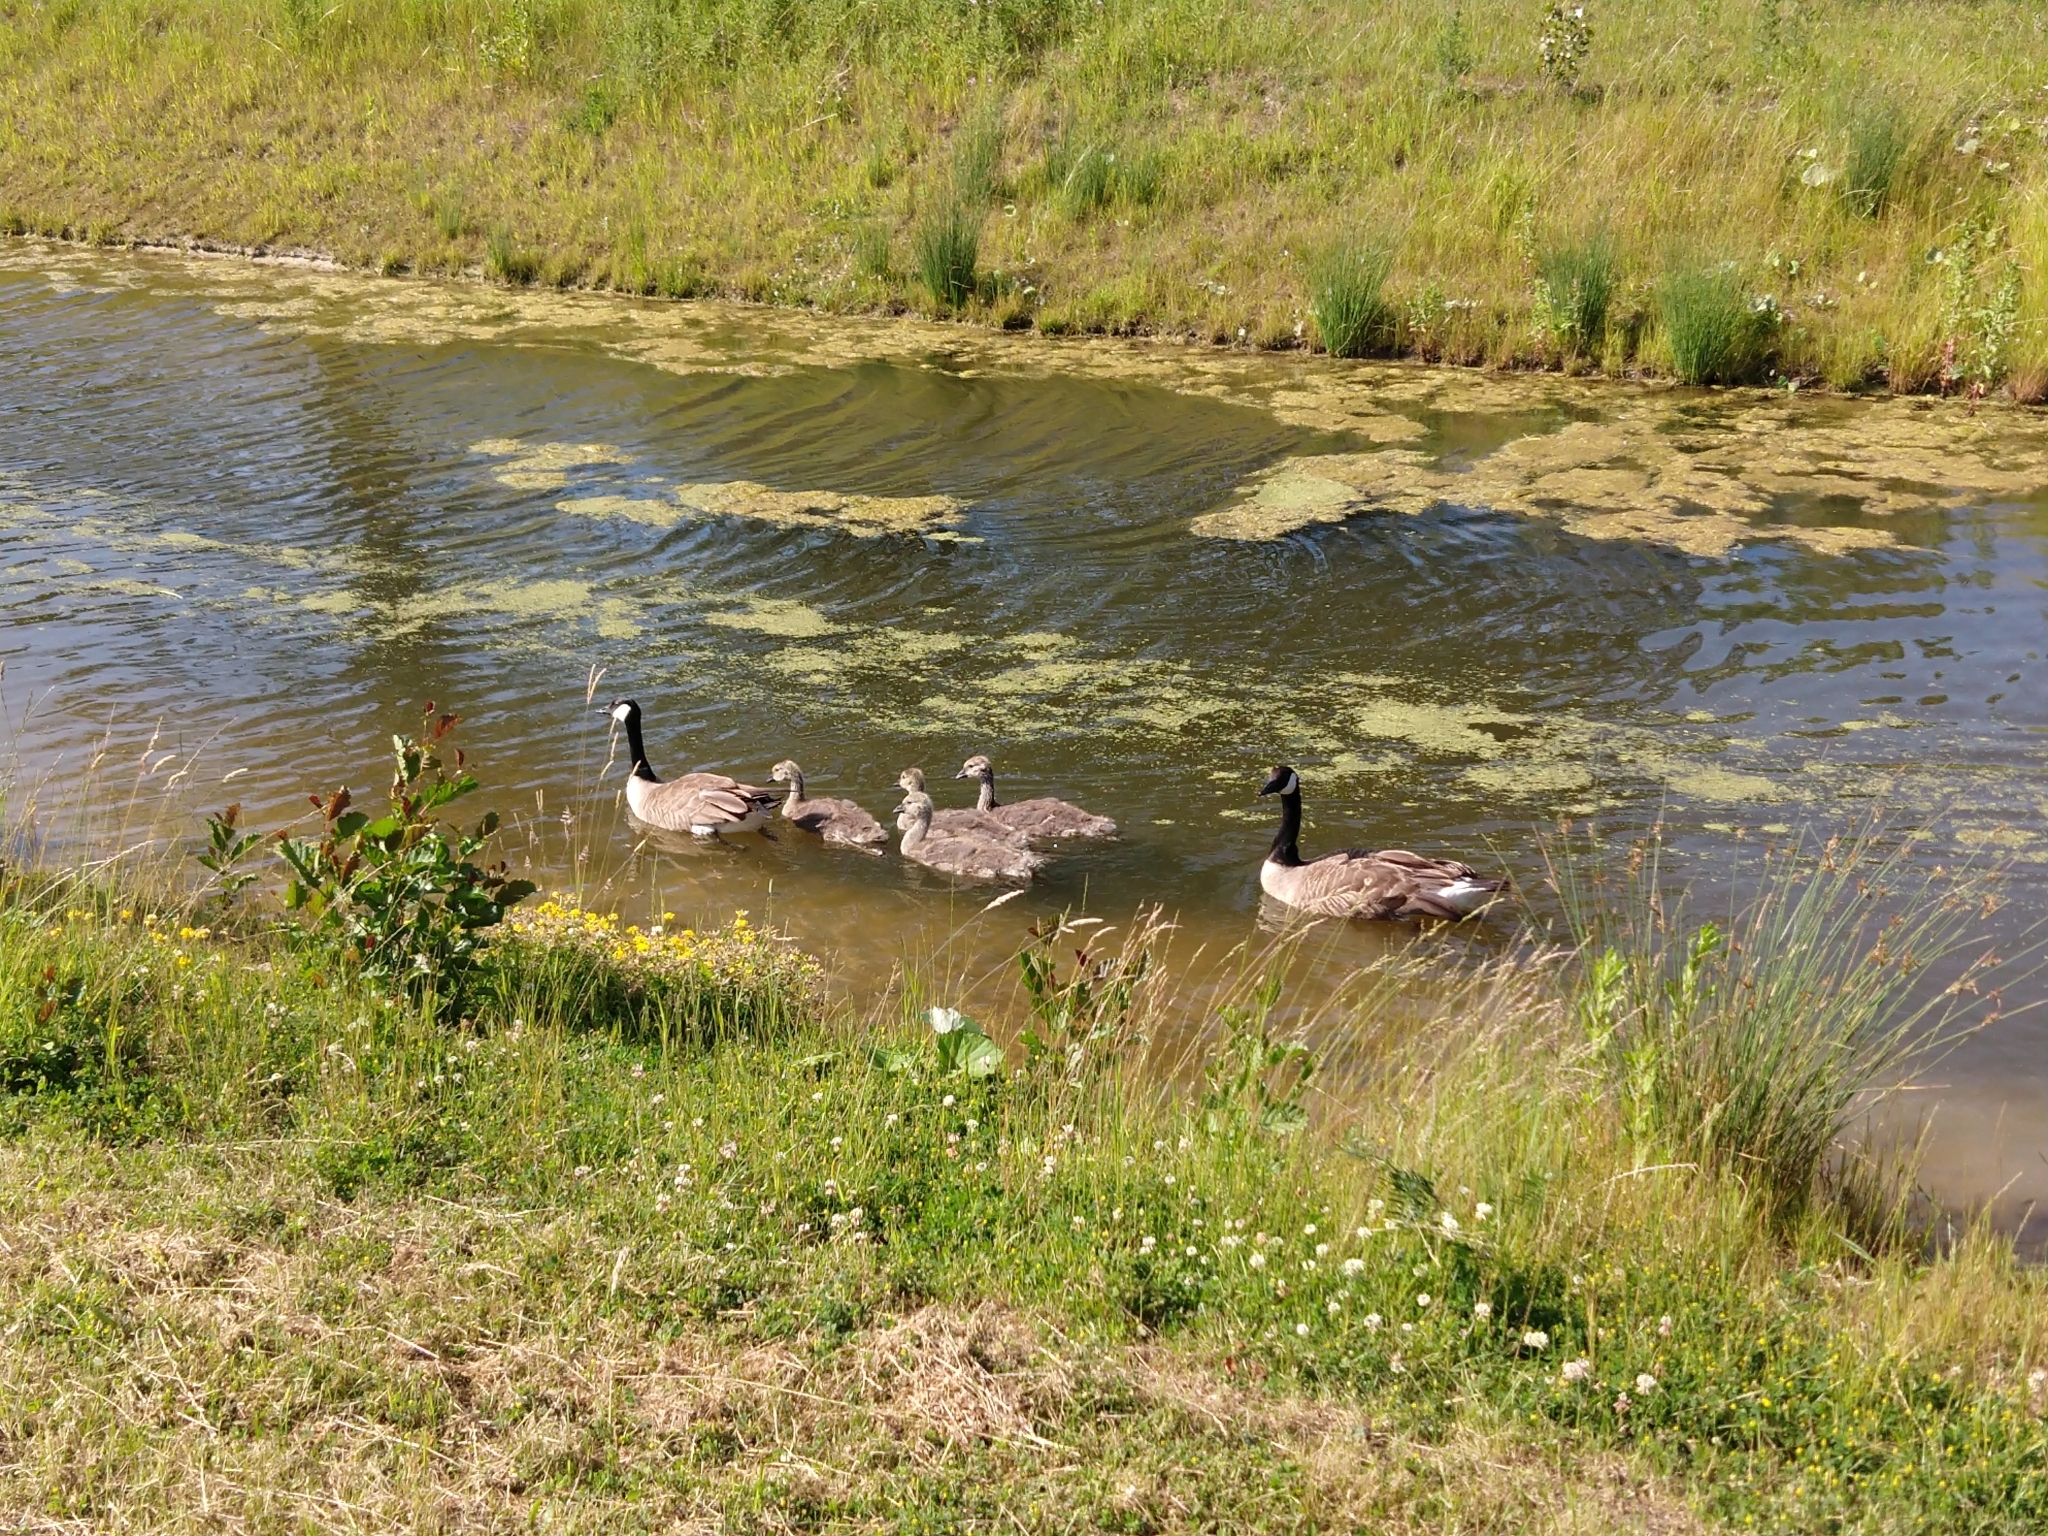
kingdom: Animalia
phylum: Chordata
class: Aves
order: Anseriformes
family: Anatidae
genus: Branta
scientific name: Branta canadensis
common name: Canada goose
